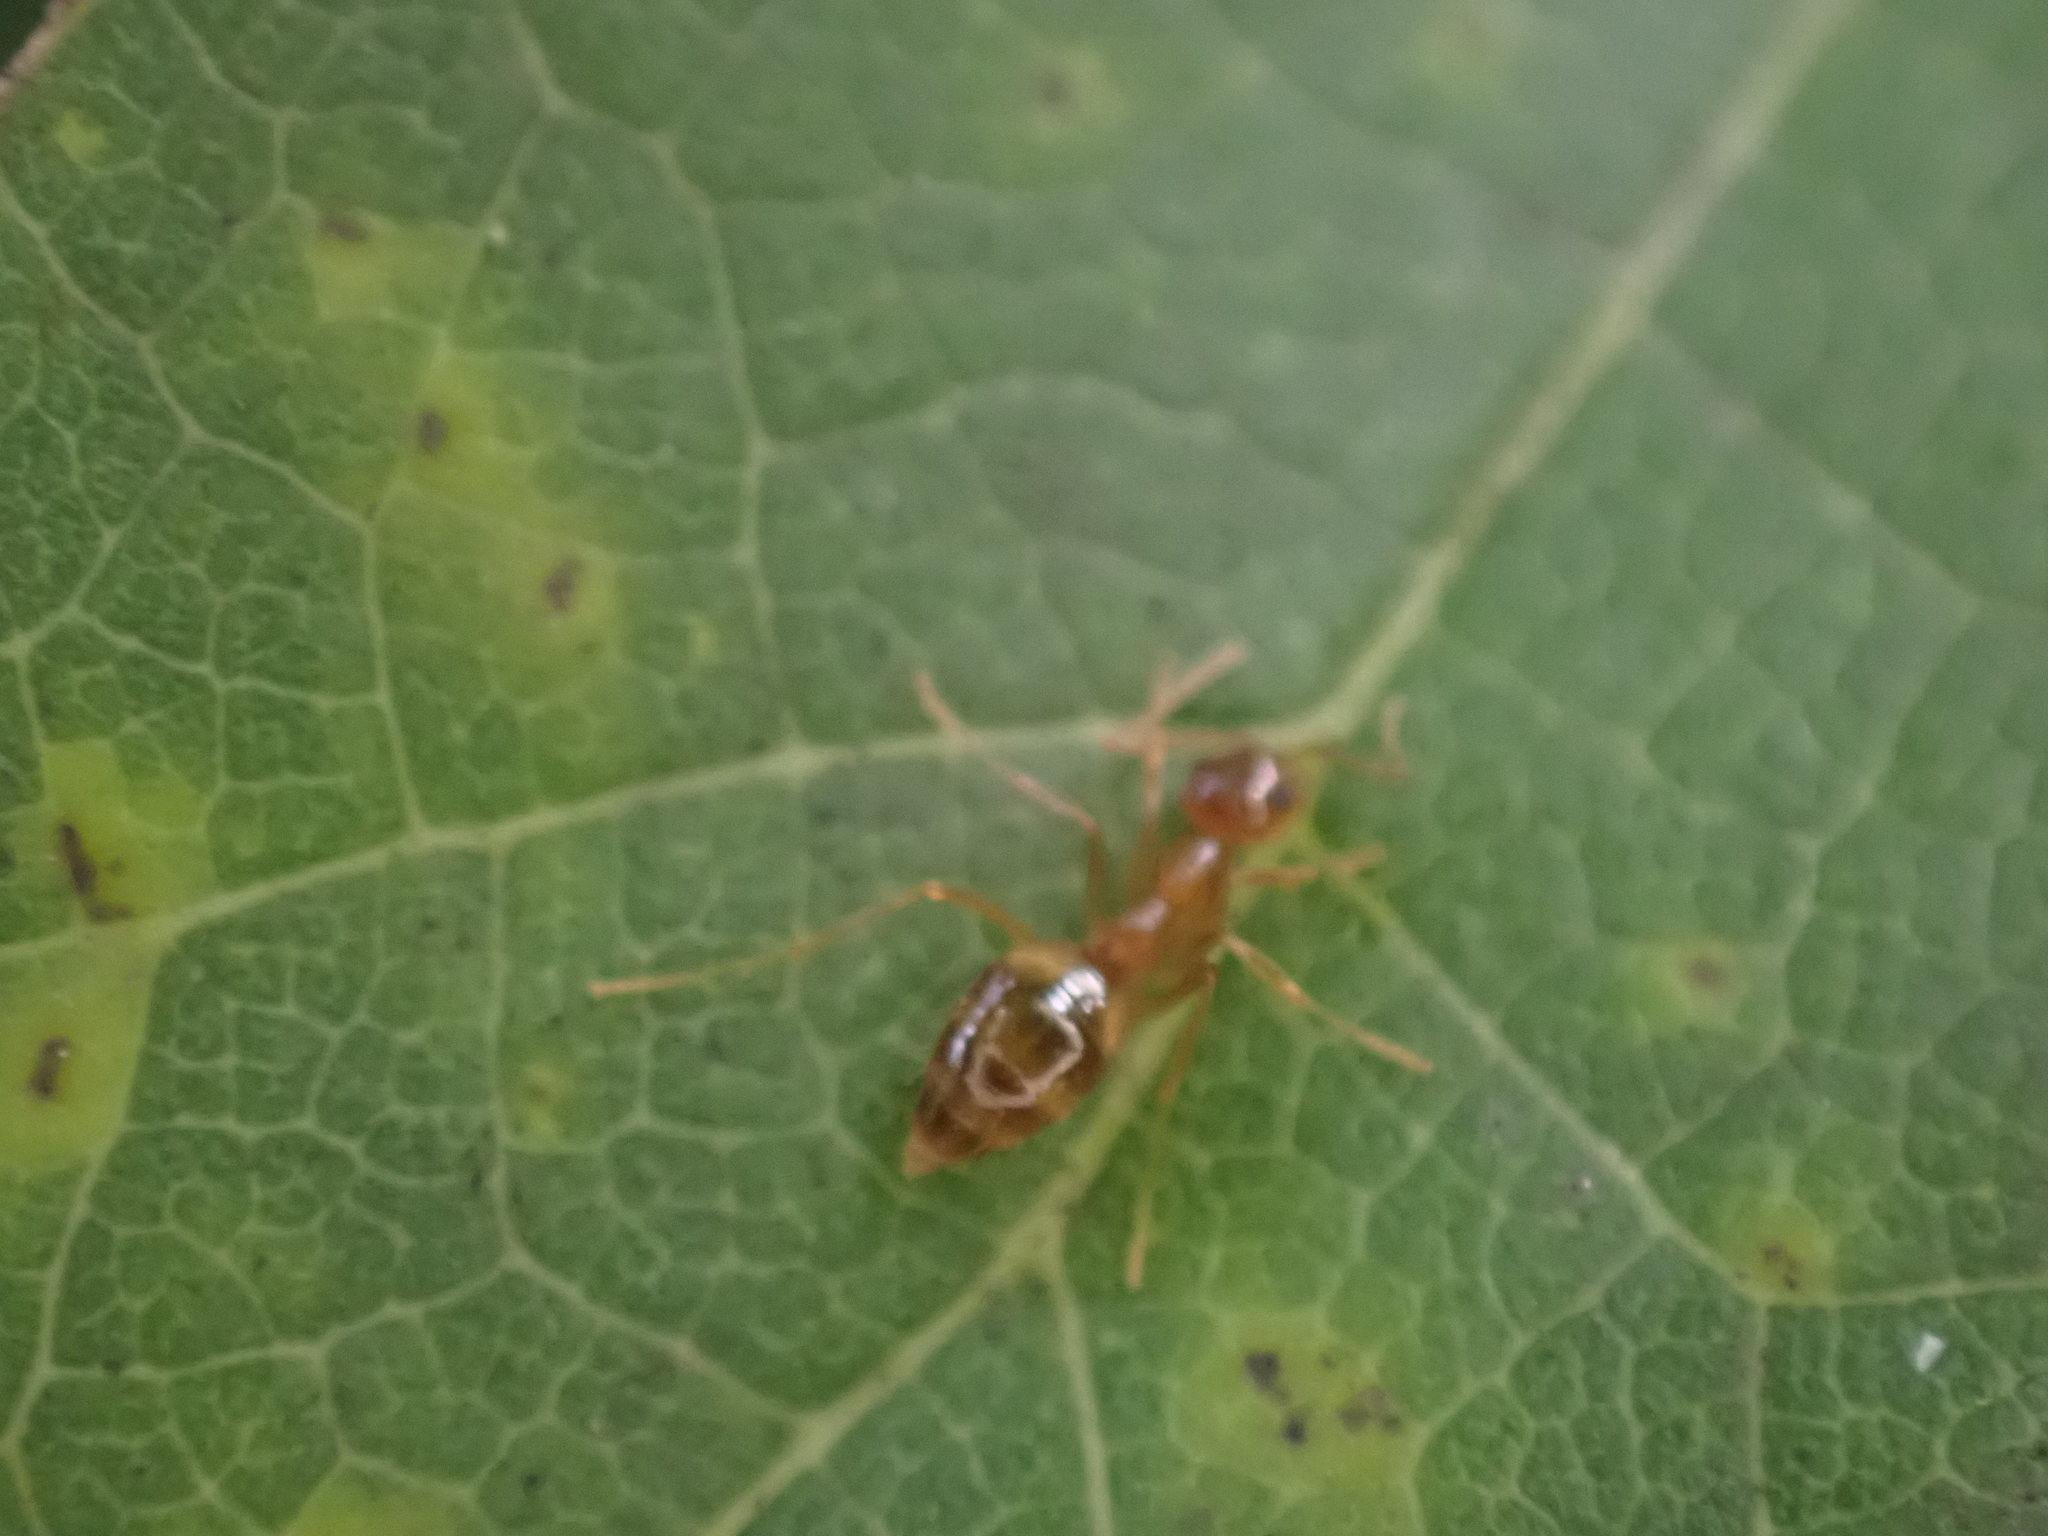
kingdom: Animalia
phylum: Arthropoda
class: Insecta
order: Hymenoptera
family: Formicidae
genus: Prenolepis
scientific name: Prenolepis imparis
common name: Small honey ant
